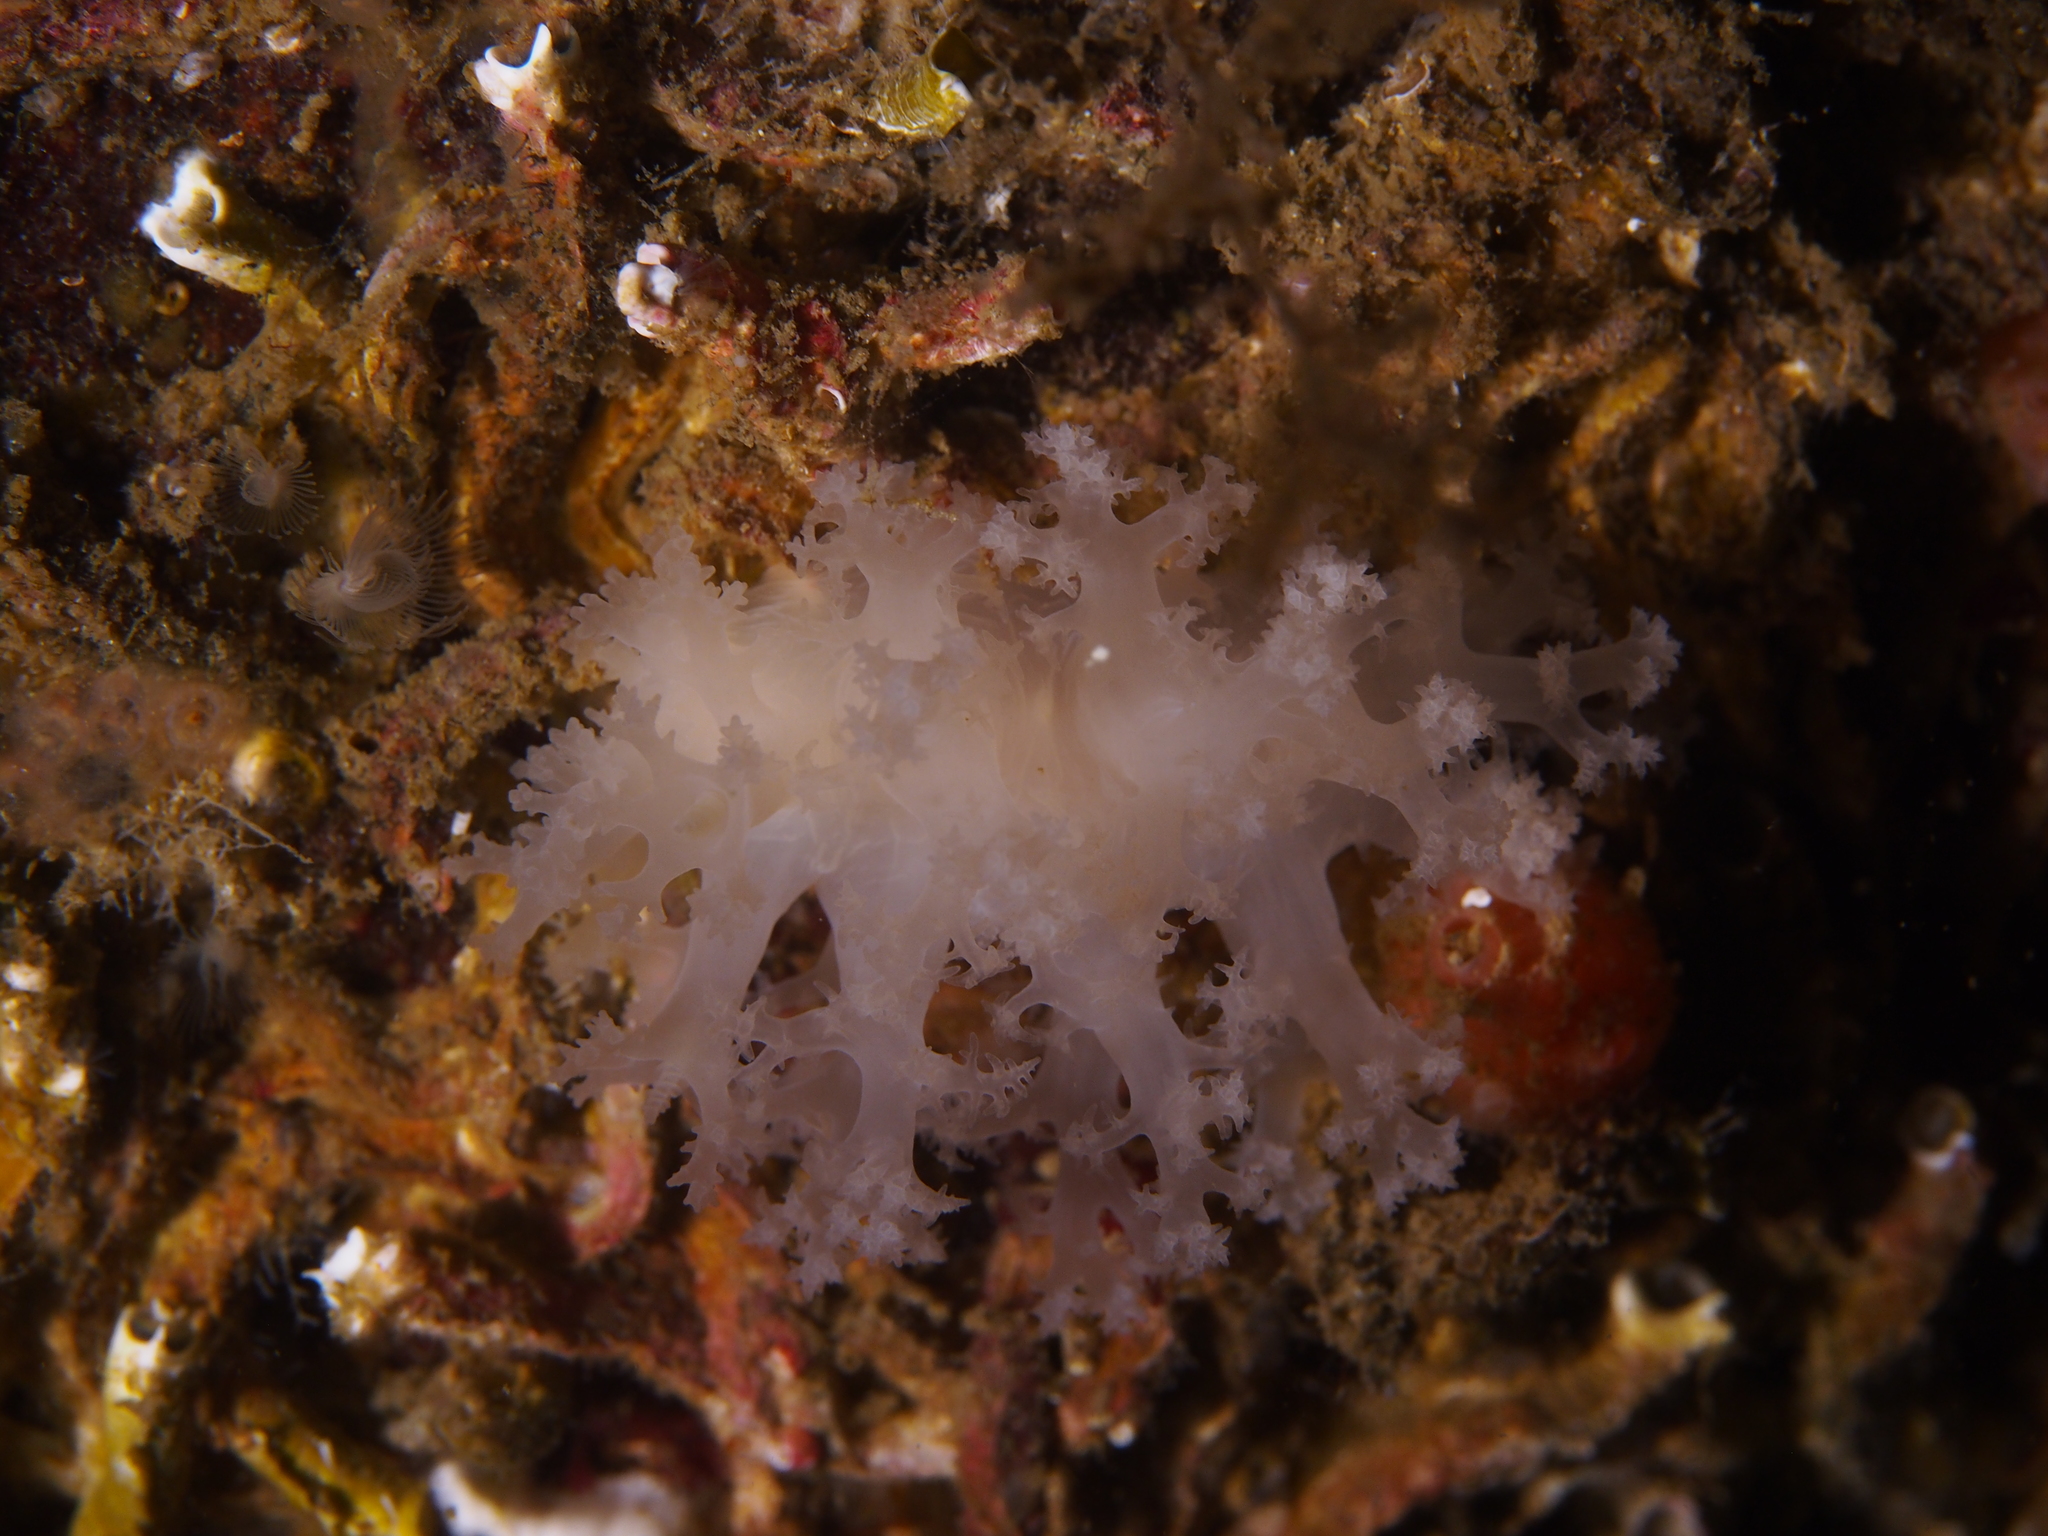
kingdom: Animalia
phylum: Mollusca
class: Gastropoda
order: Nudibranchia
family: Dendronotidae
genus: Dendronotus
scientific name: Dendronotus lacteus
